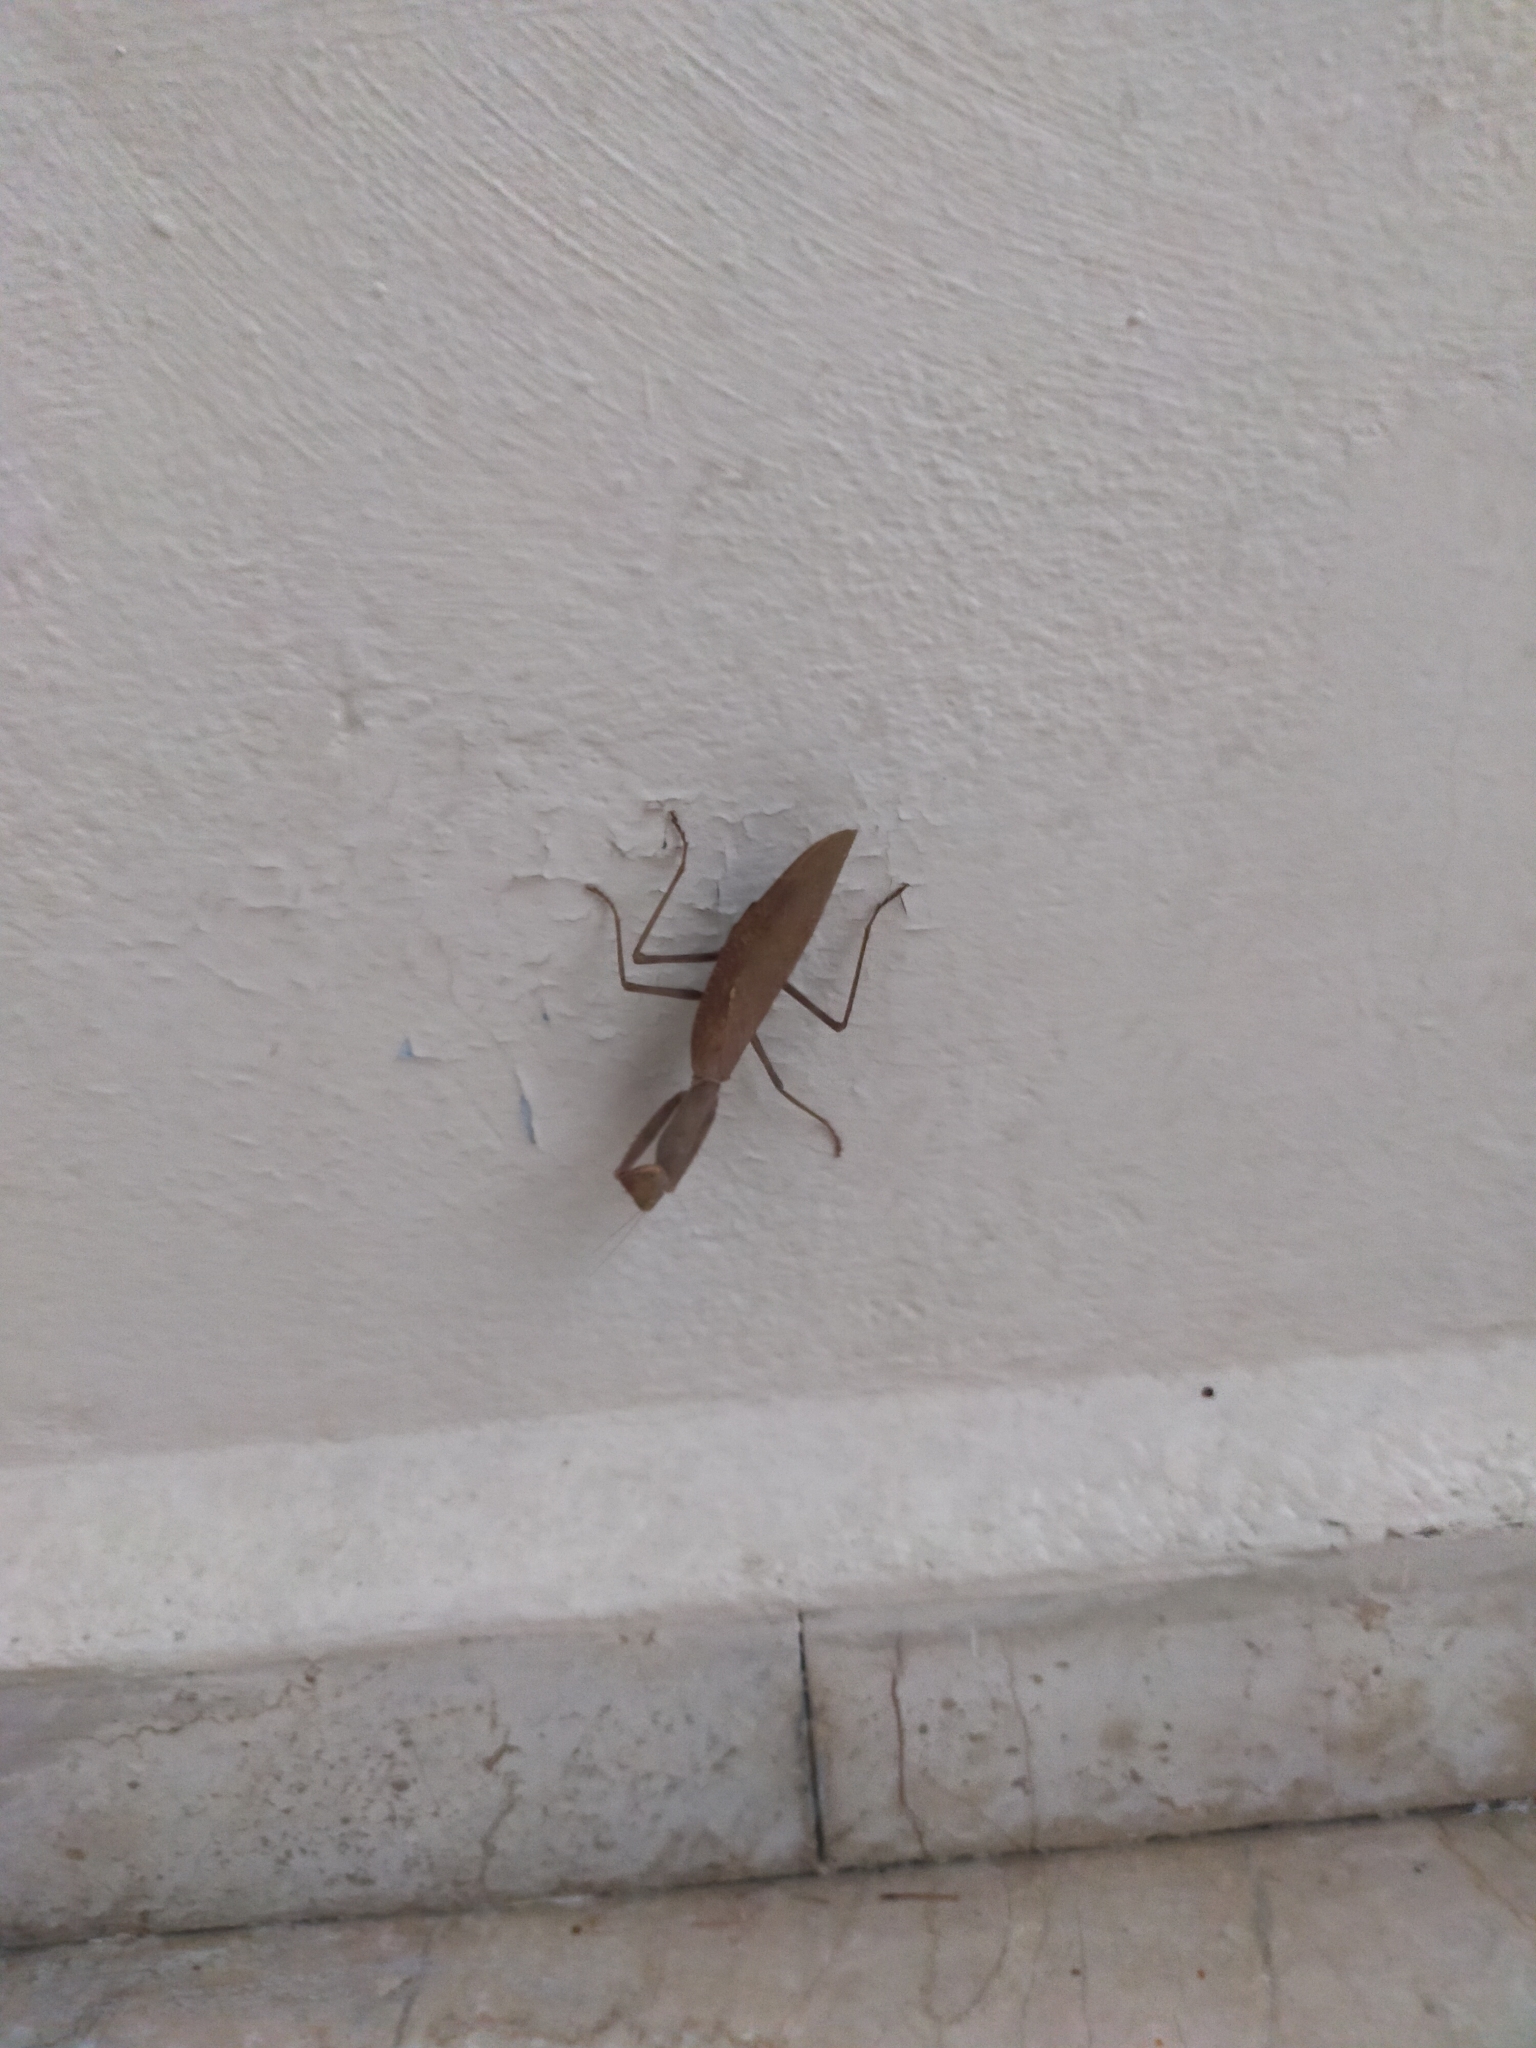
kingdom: Animalia
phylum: Arthropoda
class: Insecta
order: Mantodea
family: Mantidae
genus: Hierodula
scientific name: Hierodula transcaucasica
